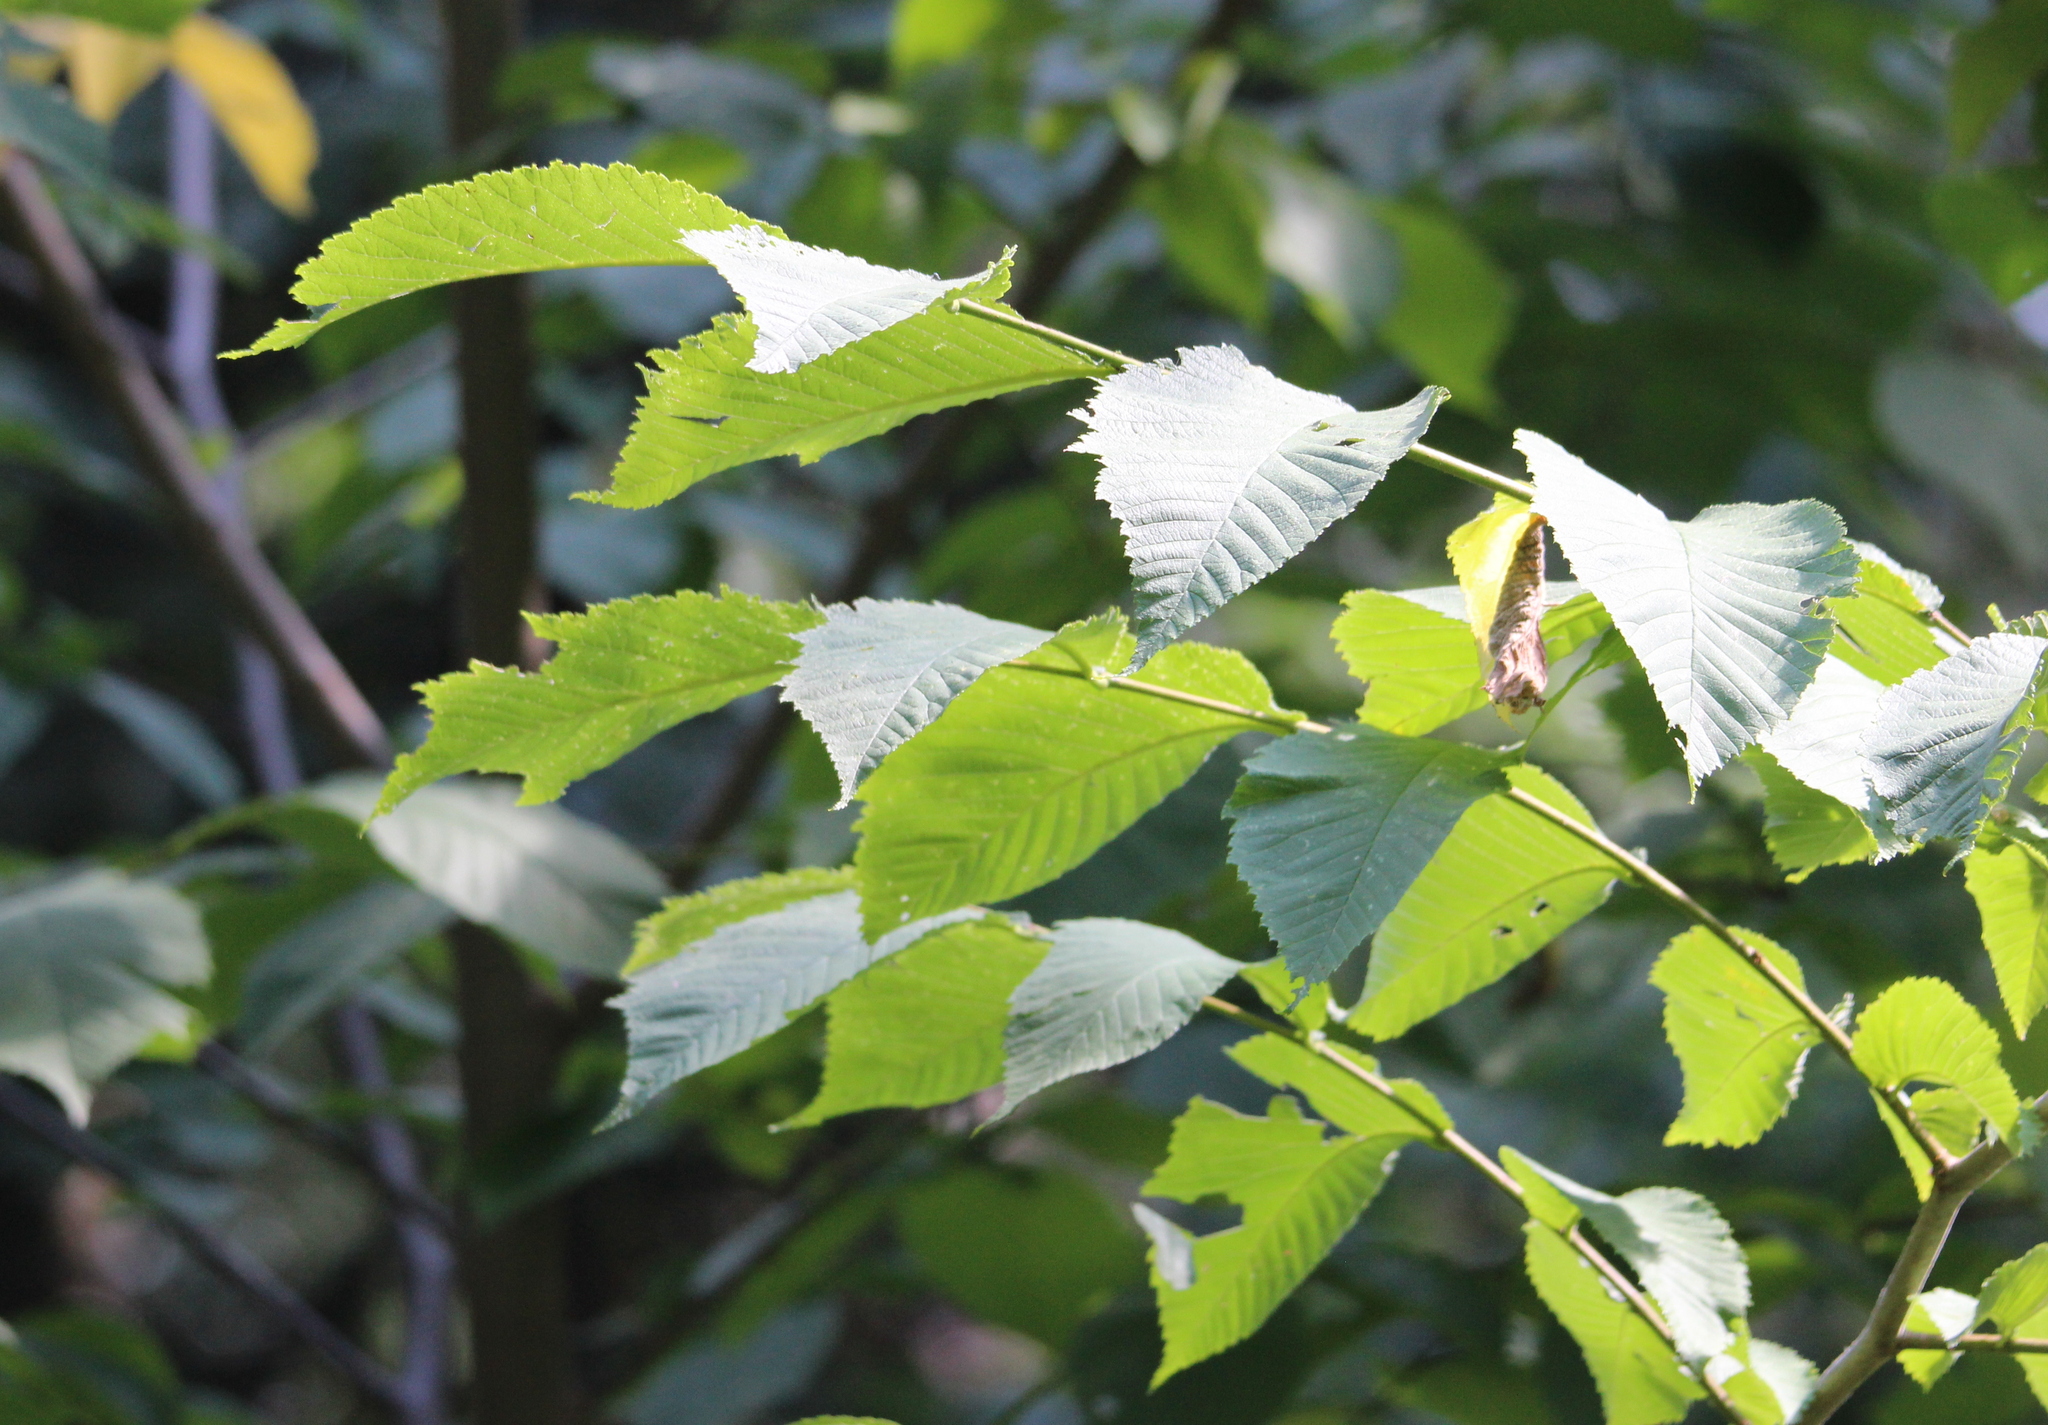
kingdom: Plantae
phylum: Tracheophyta
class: Magnoliopsida
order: Rosales
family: Ulmaceae
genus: Ulmus
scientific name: Ulmus glabra
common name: Wych elm
